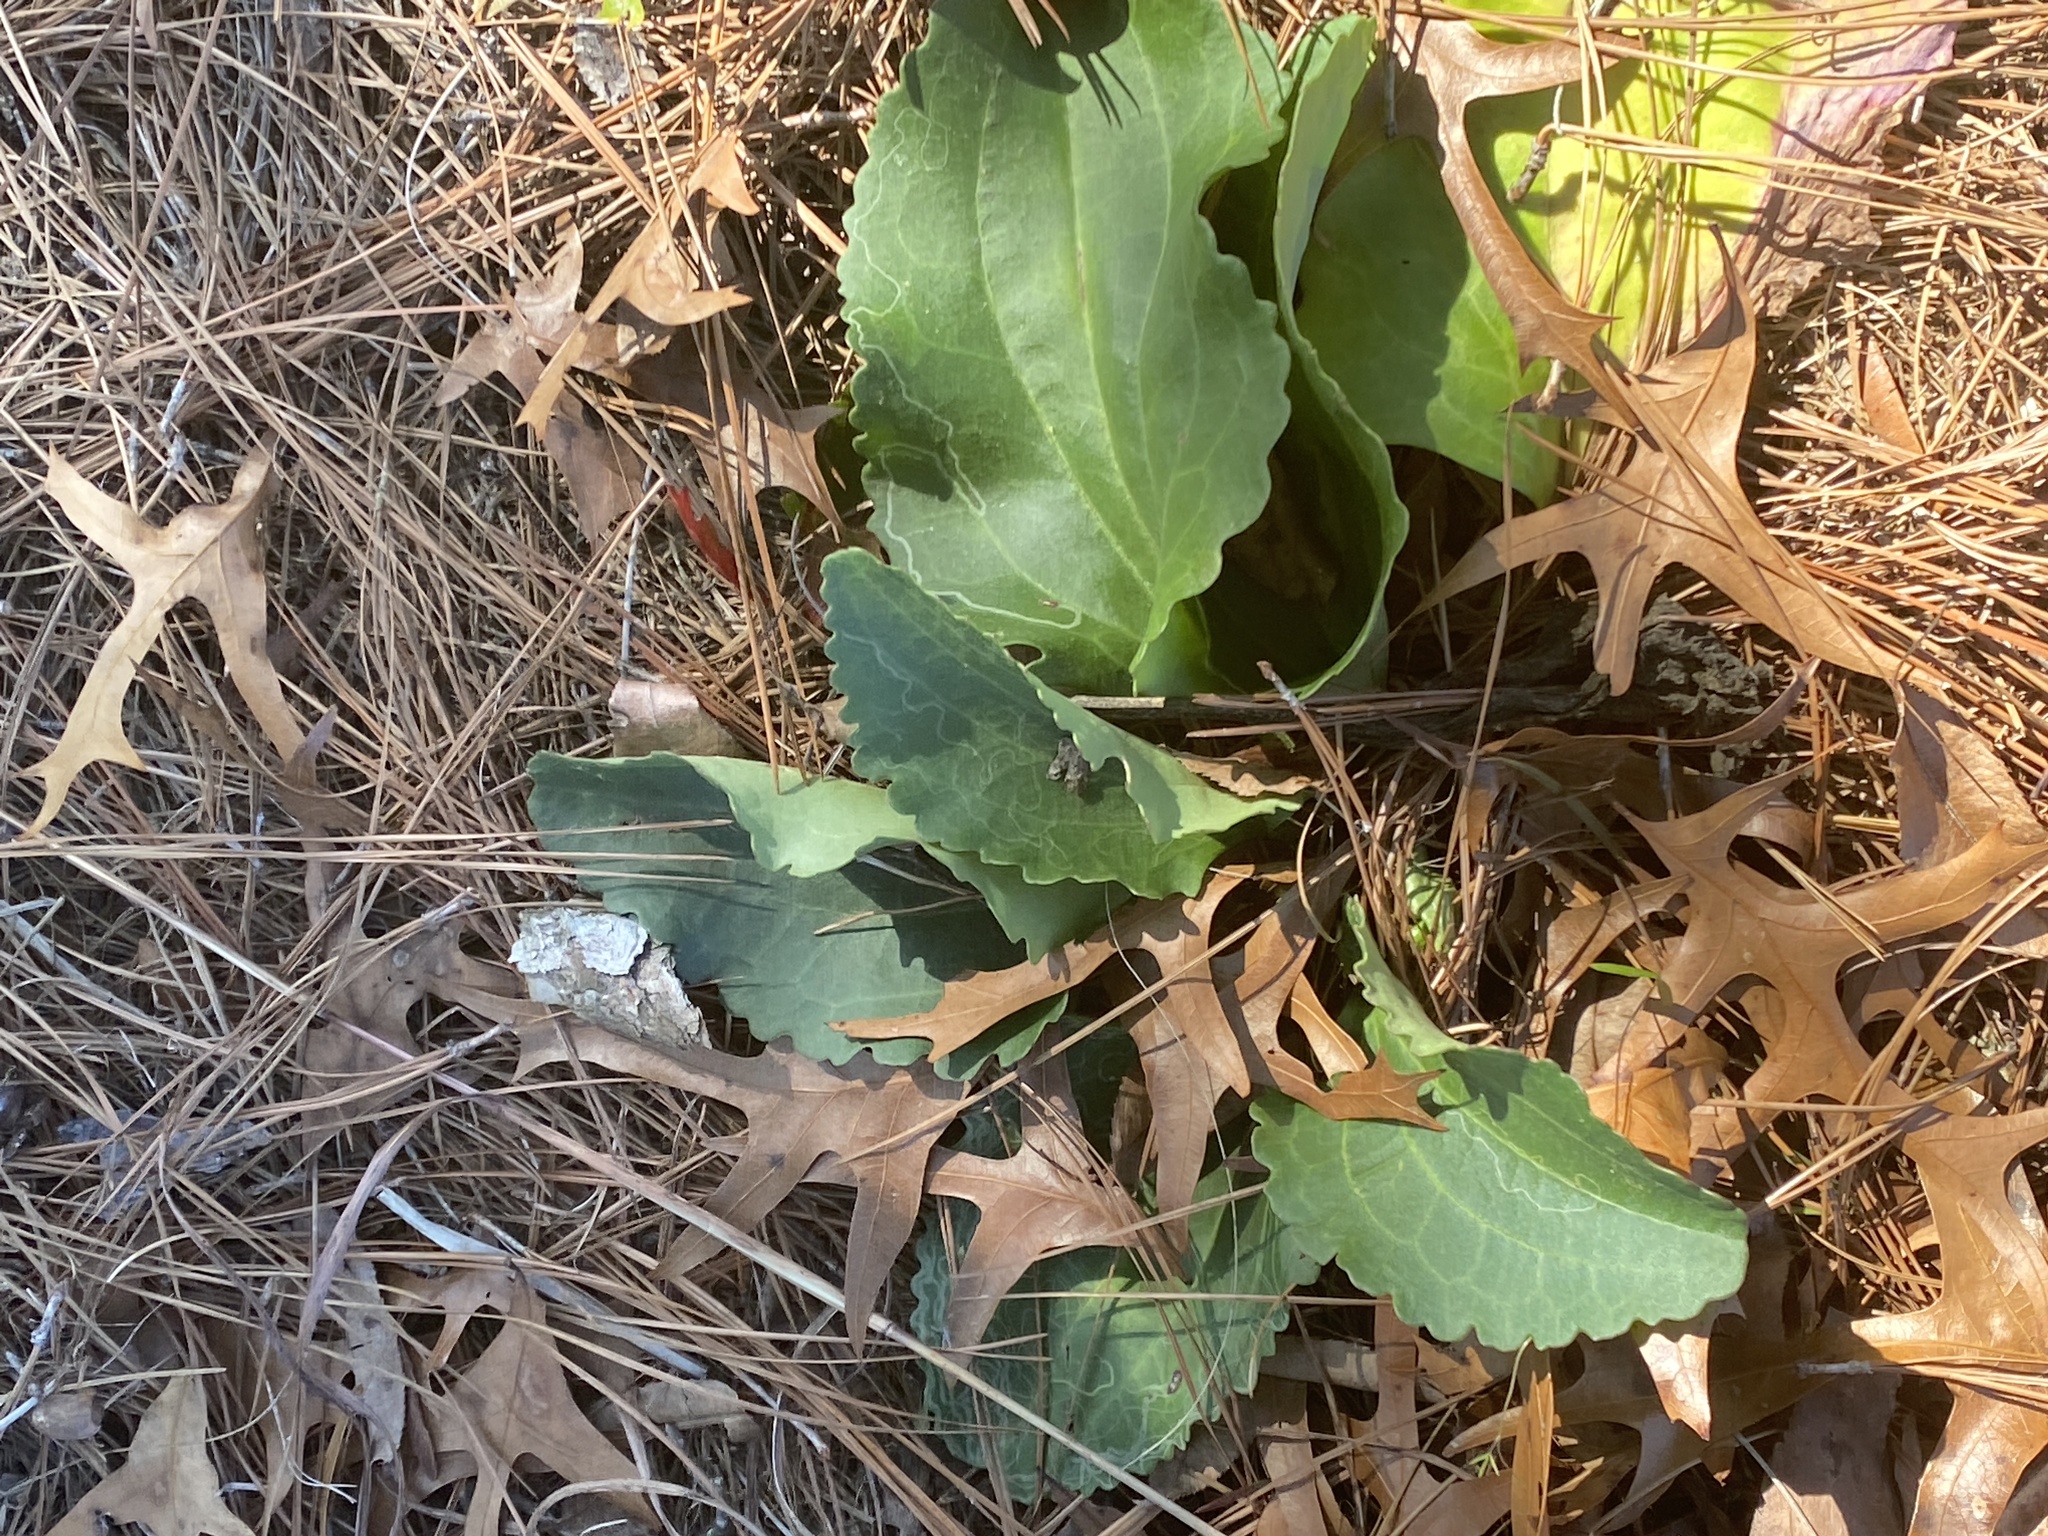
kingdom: Plantae
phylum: Tracheophyta
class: Magnoliopsida
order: Asterales
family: Asteraceae
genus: Arnoglossum
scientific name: Arnoglossum floridanum
